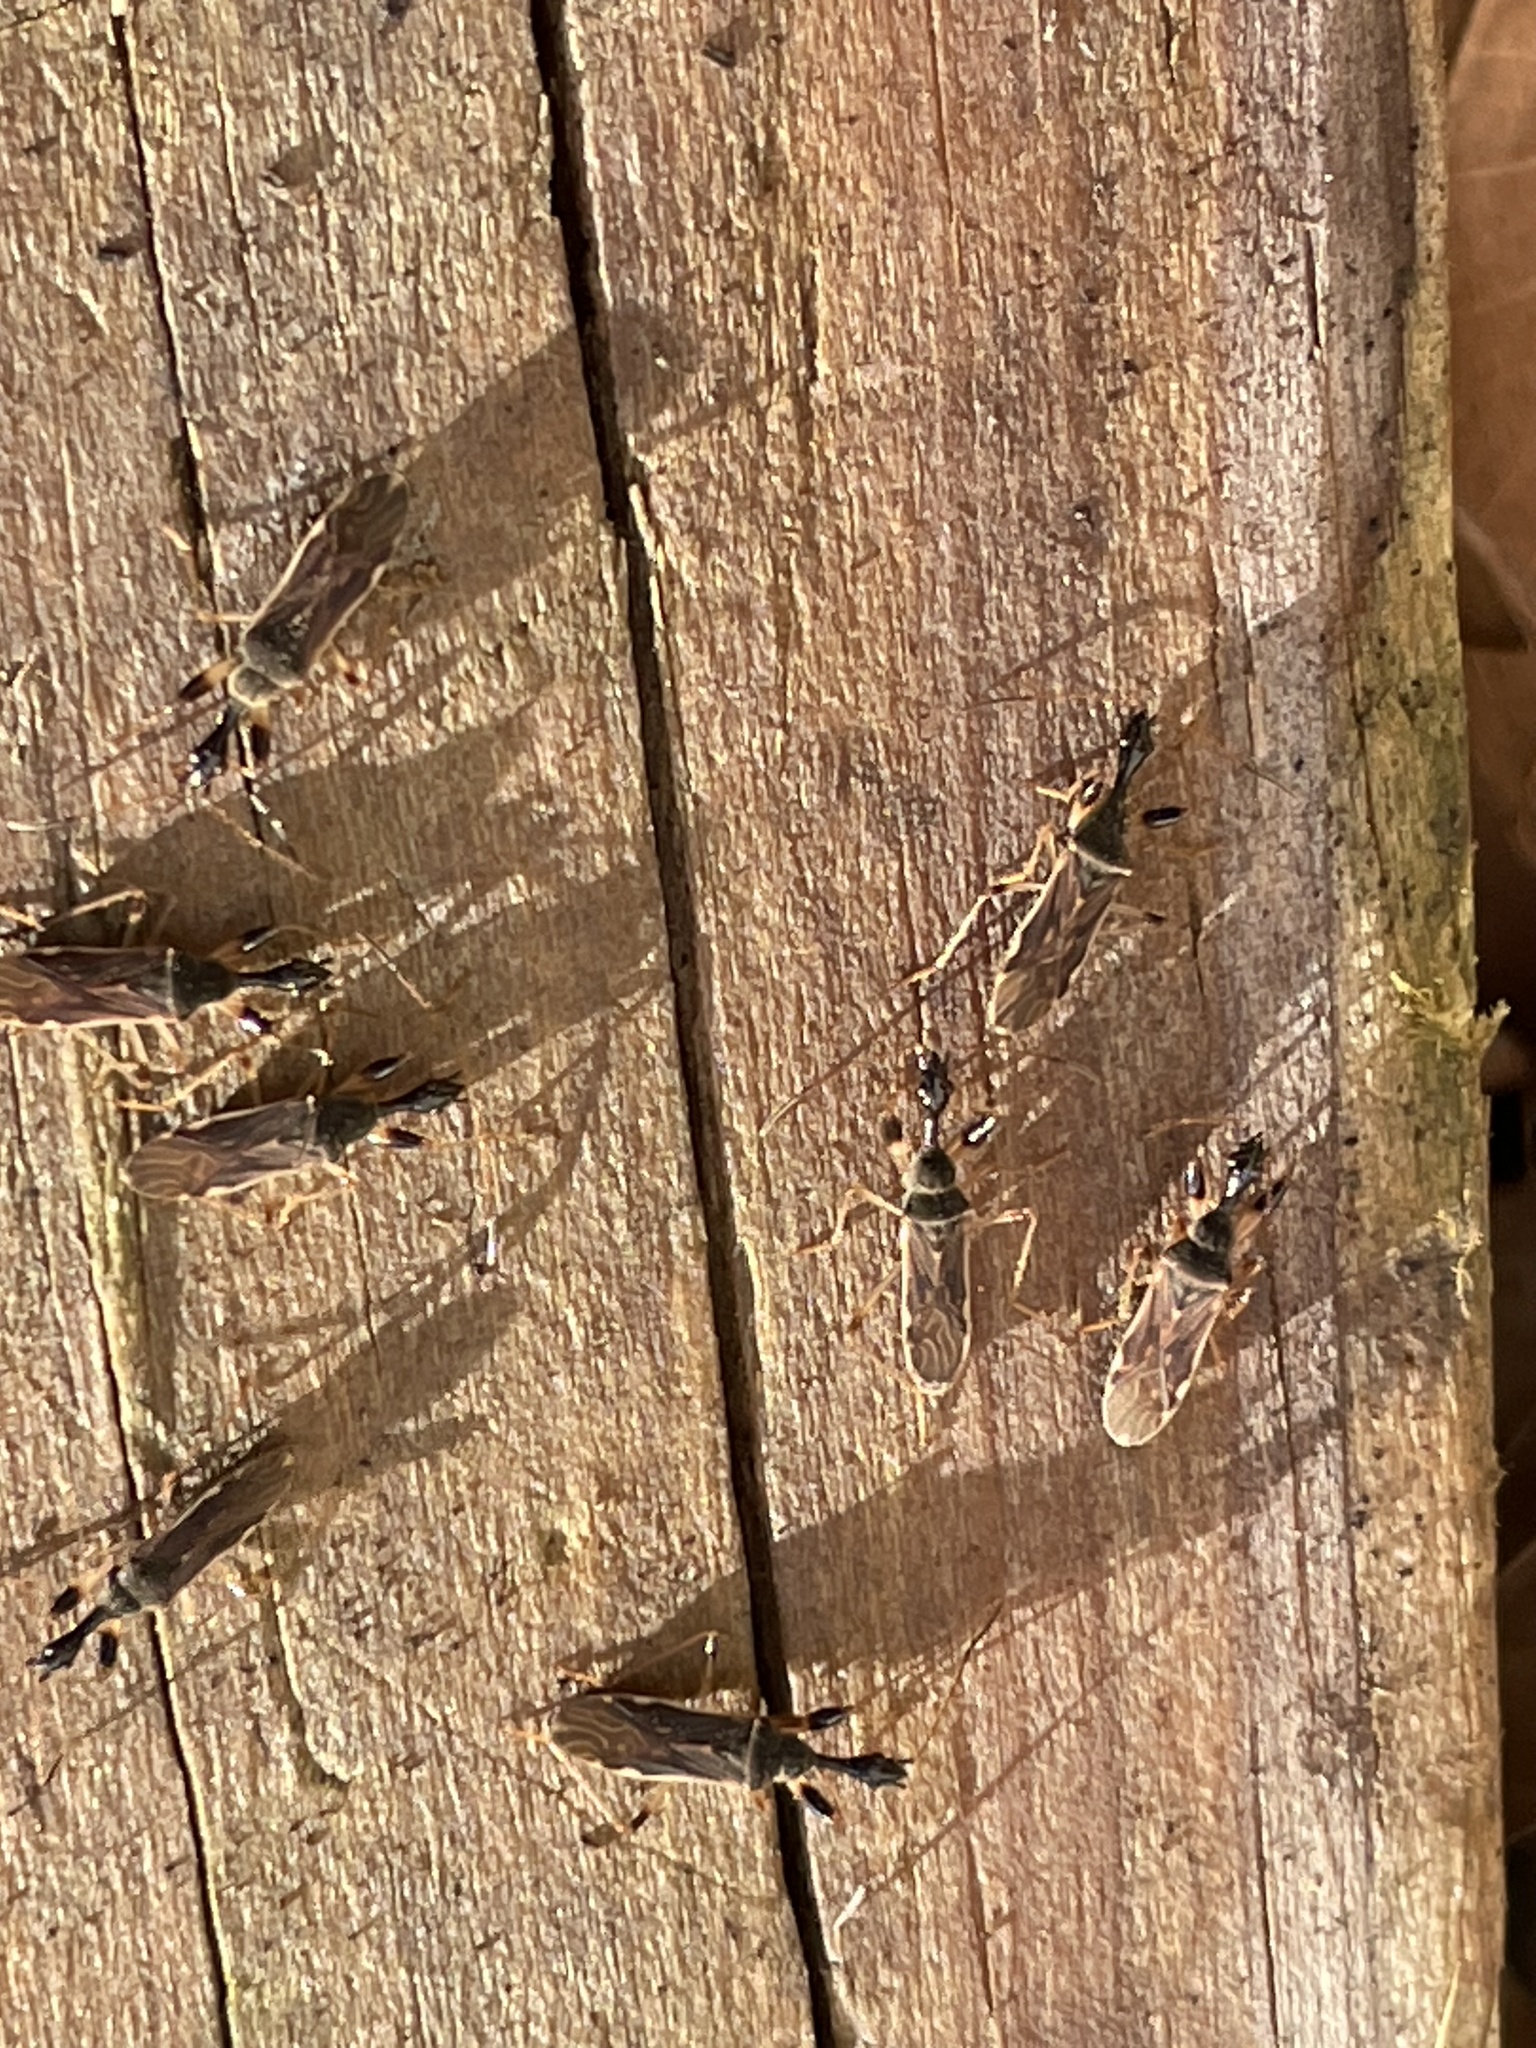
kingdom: Animalia
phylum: Arthropoda
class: Insecta
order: Hemiptera
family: Rhyparochromidae
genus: Myodocha
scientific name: Myodocha serripes
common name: Long-necked seed bug
